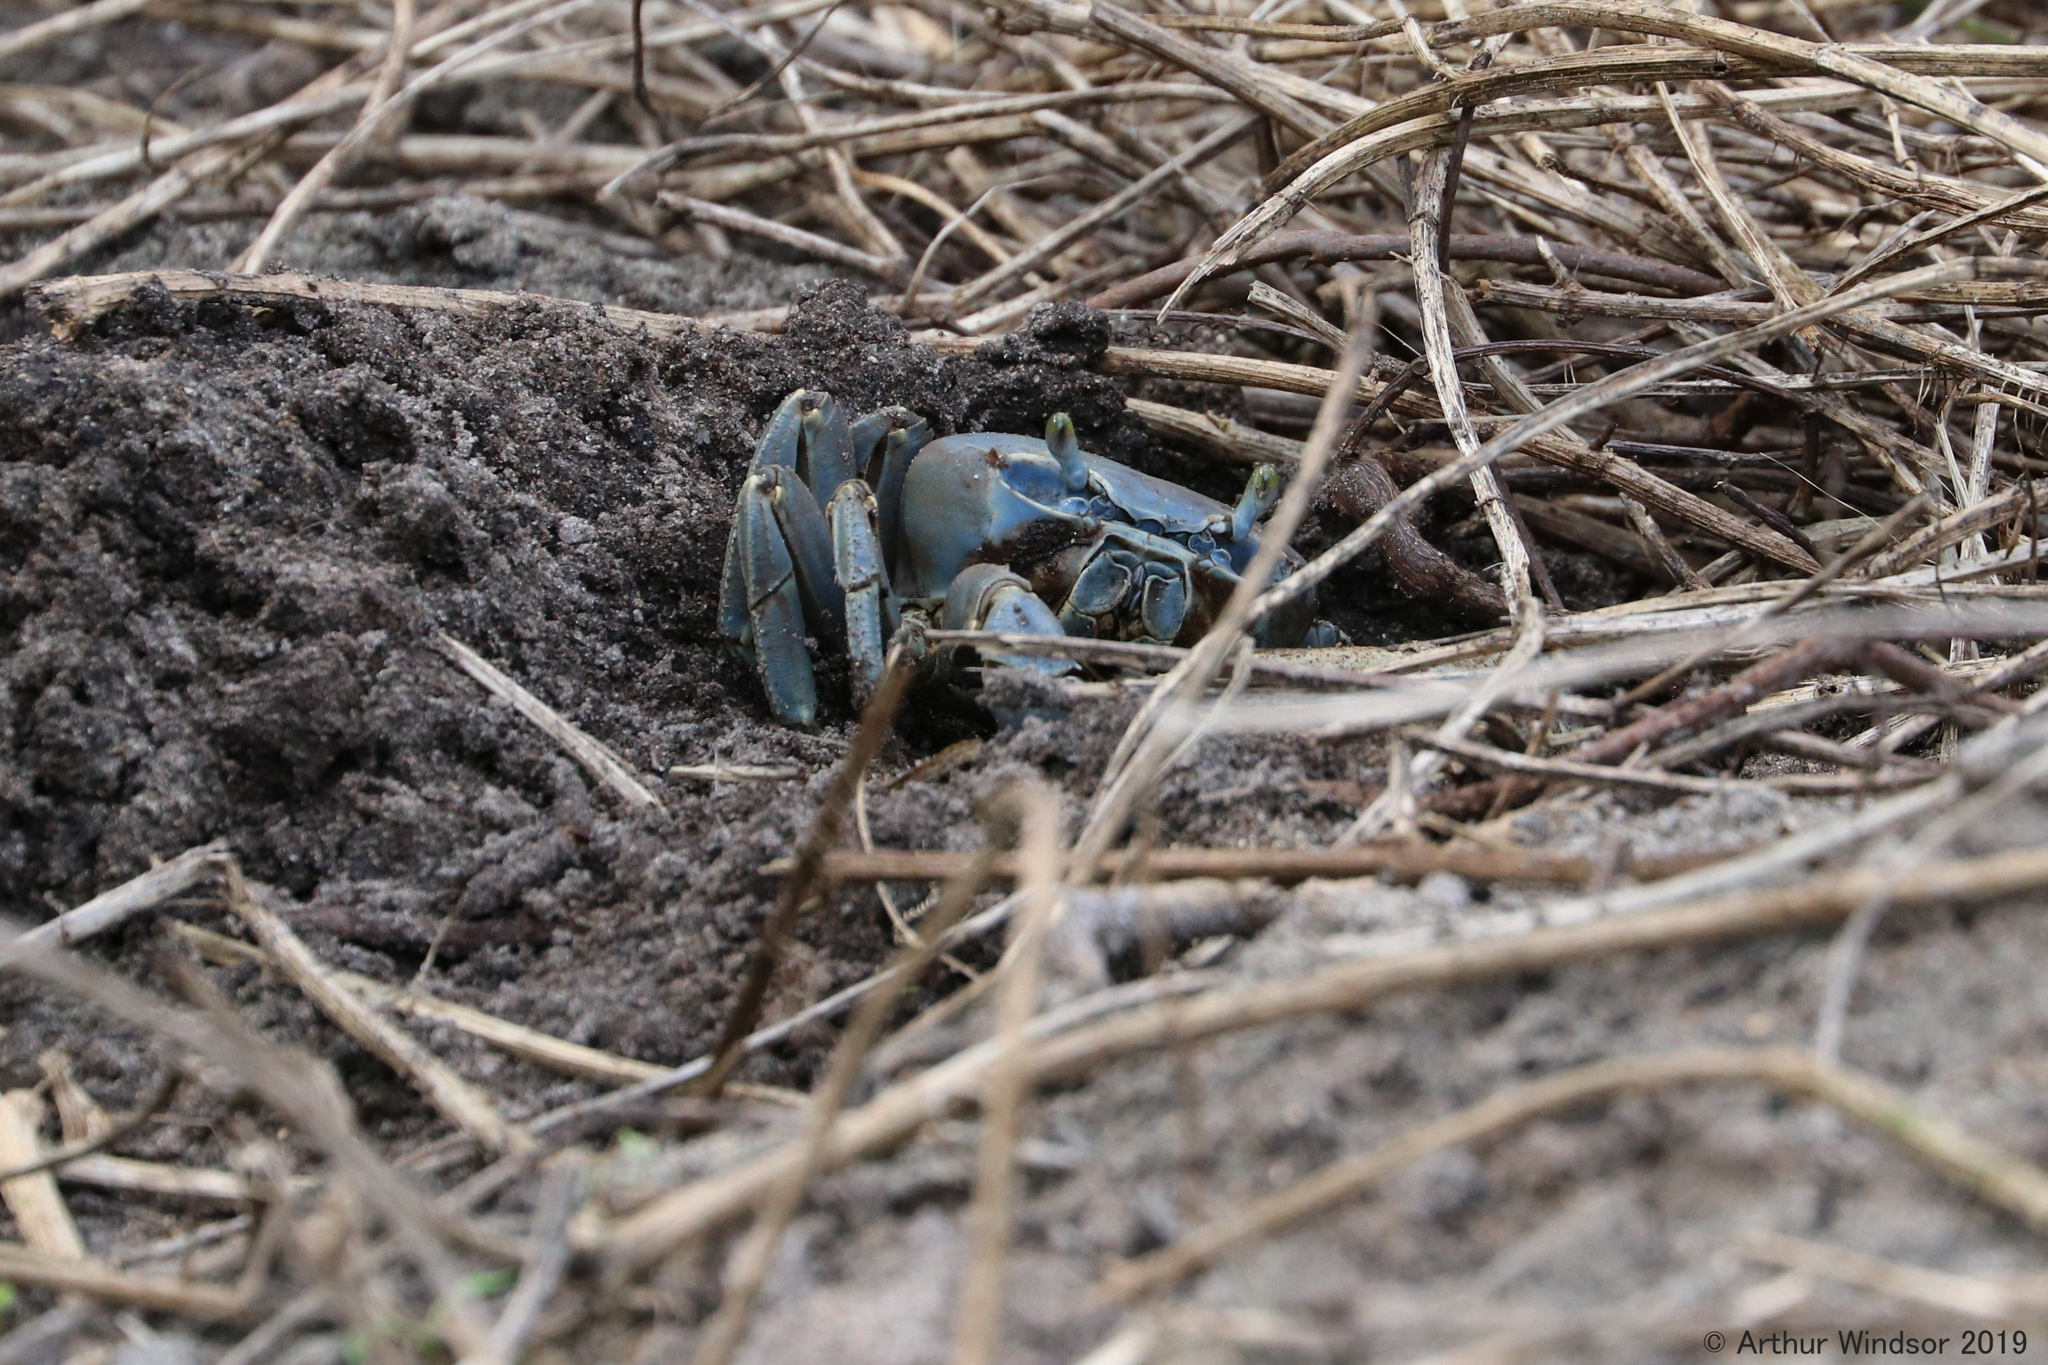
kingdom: Animalia
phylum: Arthropoda
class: Malacostraca
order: Decapoda
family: Gecarcinidae
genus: Cardisoma
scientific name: Cardisoma guanhumi
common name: Great land crab
